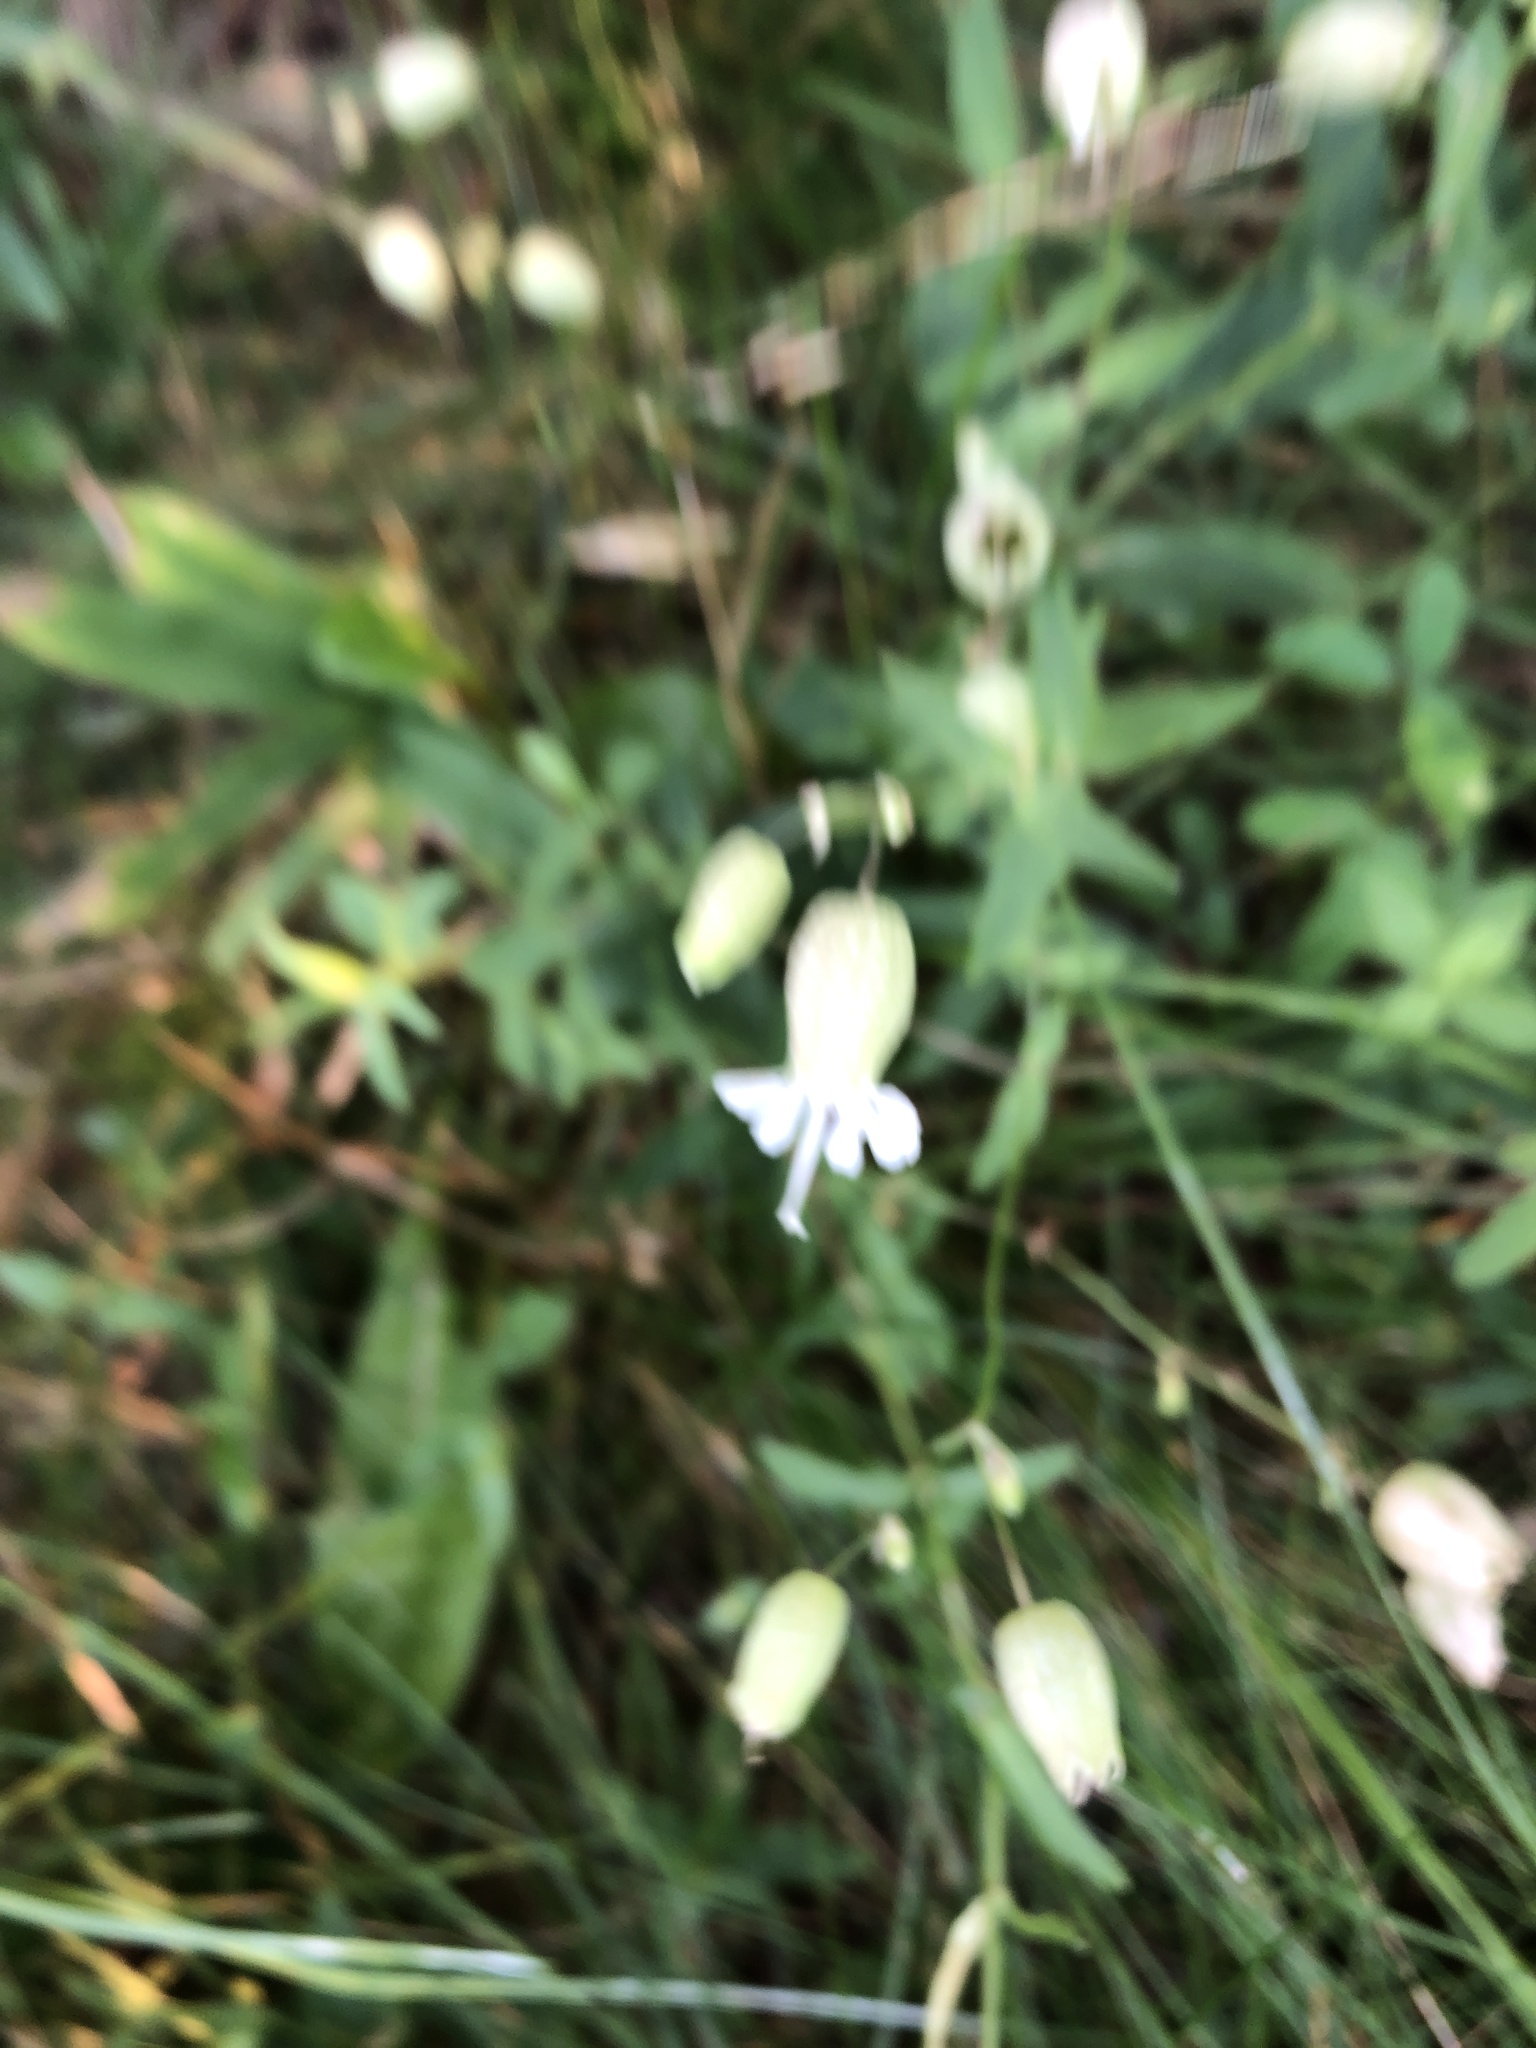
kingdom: Plantae
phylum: Tracheophyta
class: Magnoliopsida
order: Caryophyllales
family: Caryophyllaceae
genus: Silene
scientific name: Silene vulgaris
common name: Bladder campion
